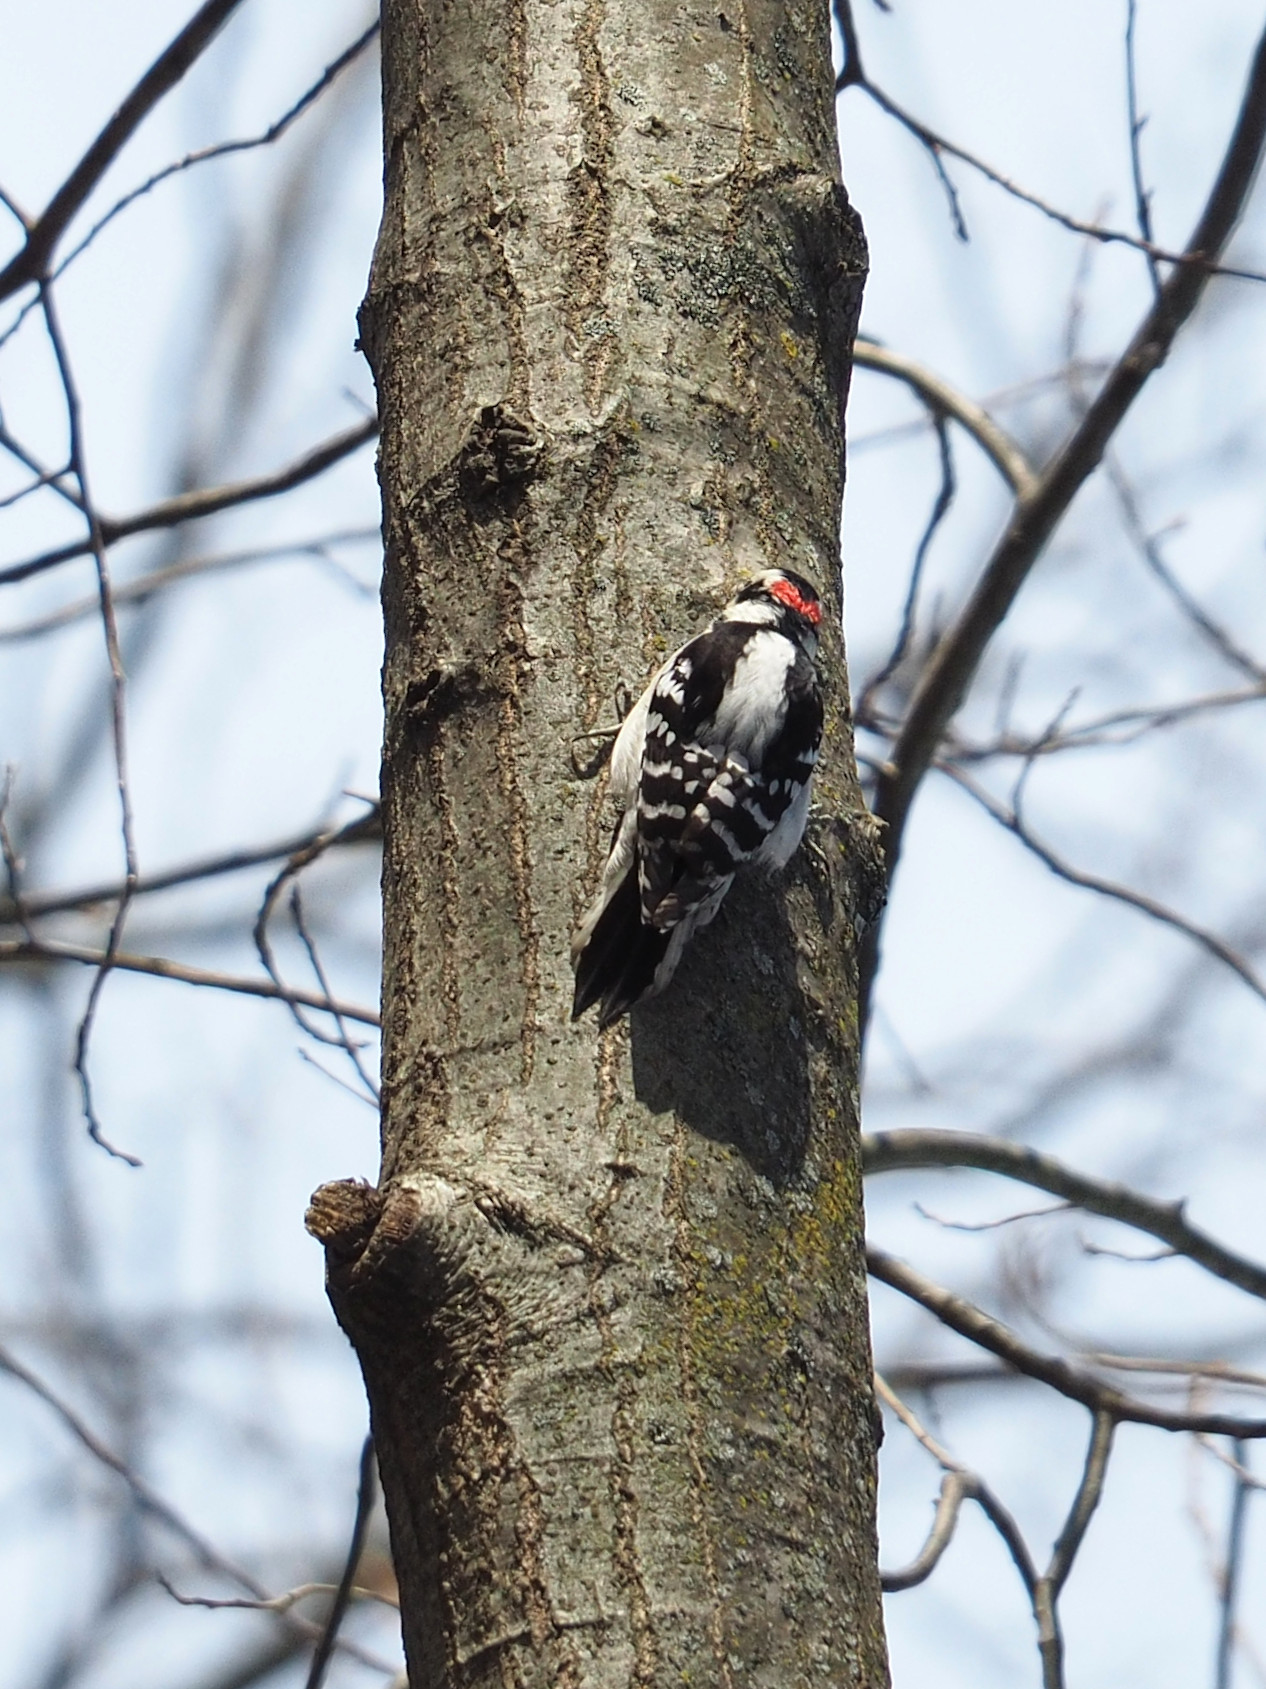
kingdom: Animalia
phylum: Chordata
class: Aves
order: Piciformes
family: Picidae
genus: Dryobates
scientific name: Dryobates pubescens
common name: Downy woodpecker
